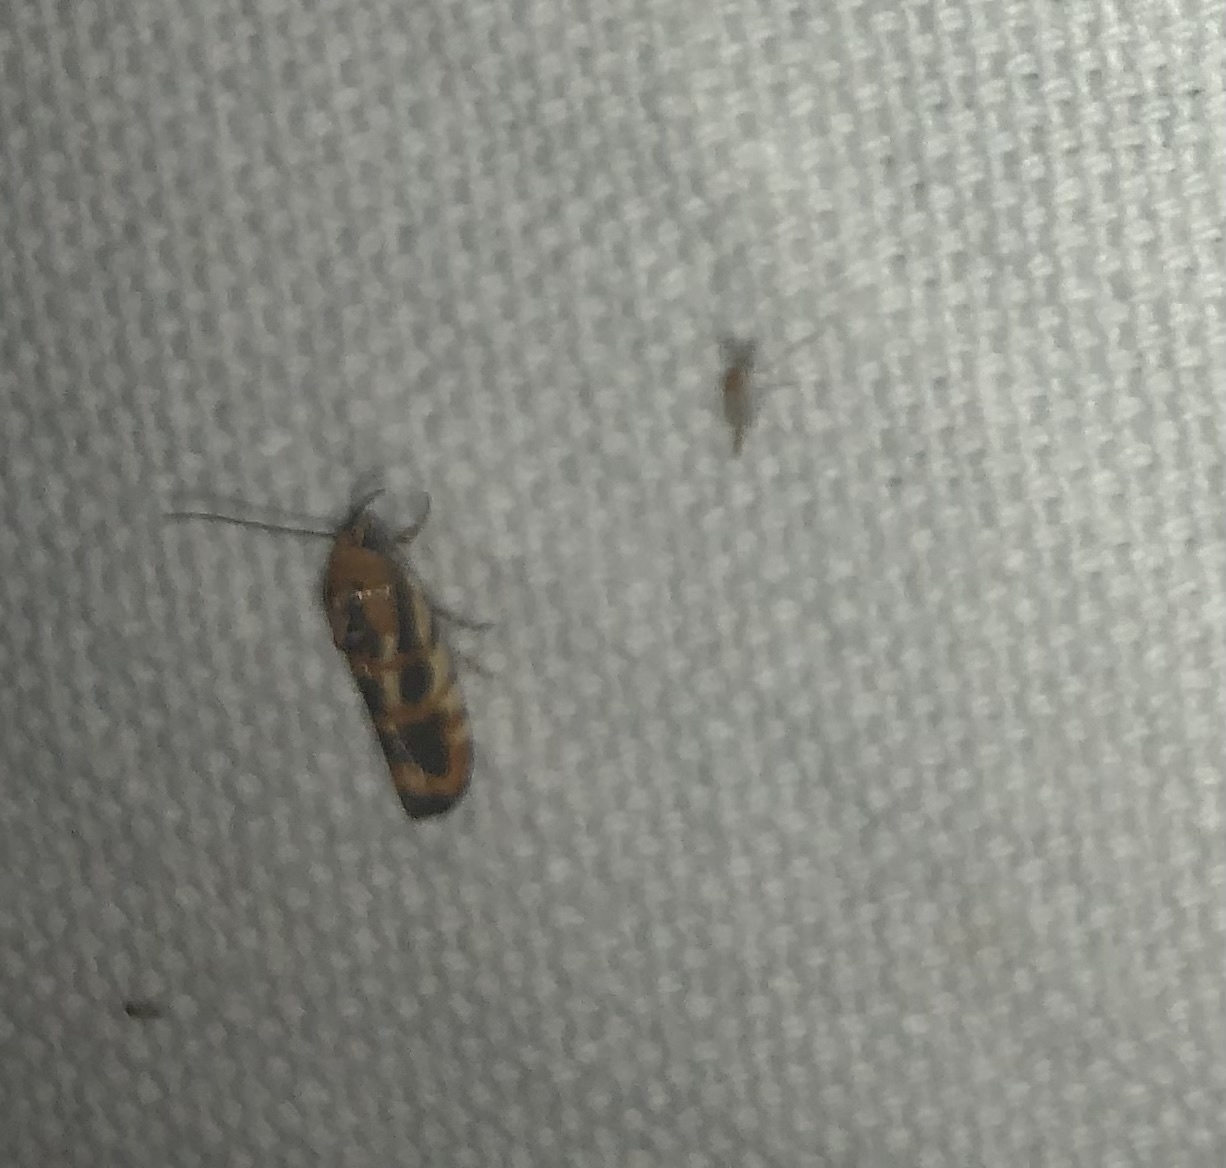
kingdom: Animalia
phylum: Arthropoda
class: Insecta
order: Lepidoptera
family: Noctuidae
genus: Acontia
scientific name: Acontia leo
